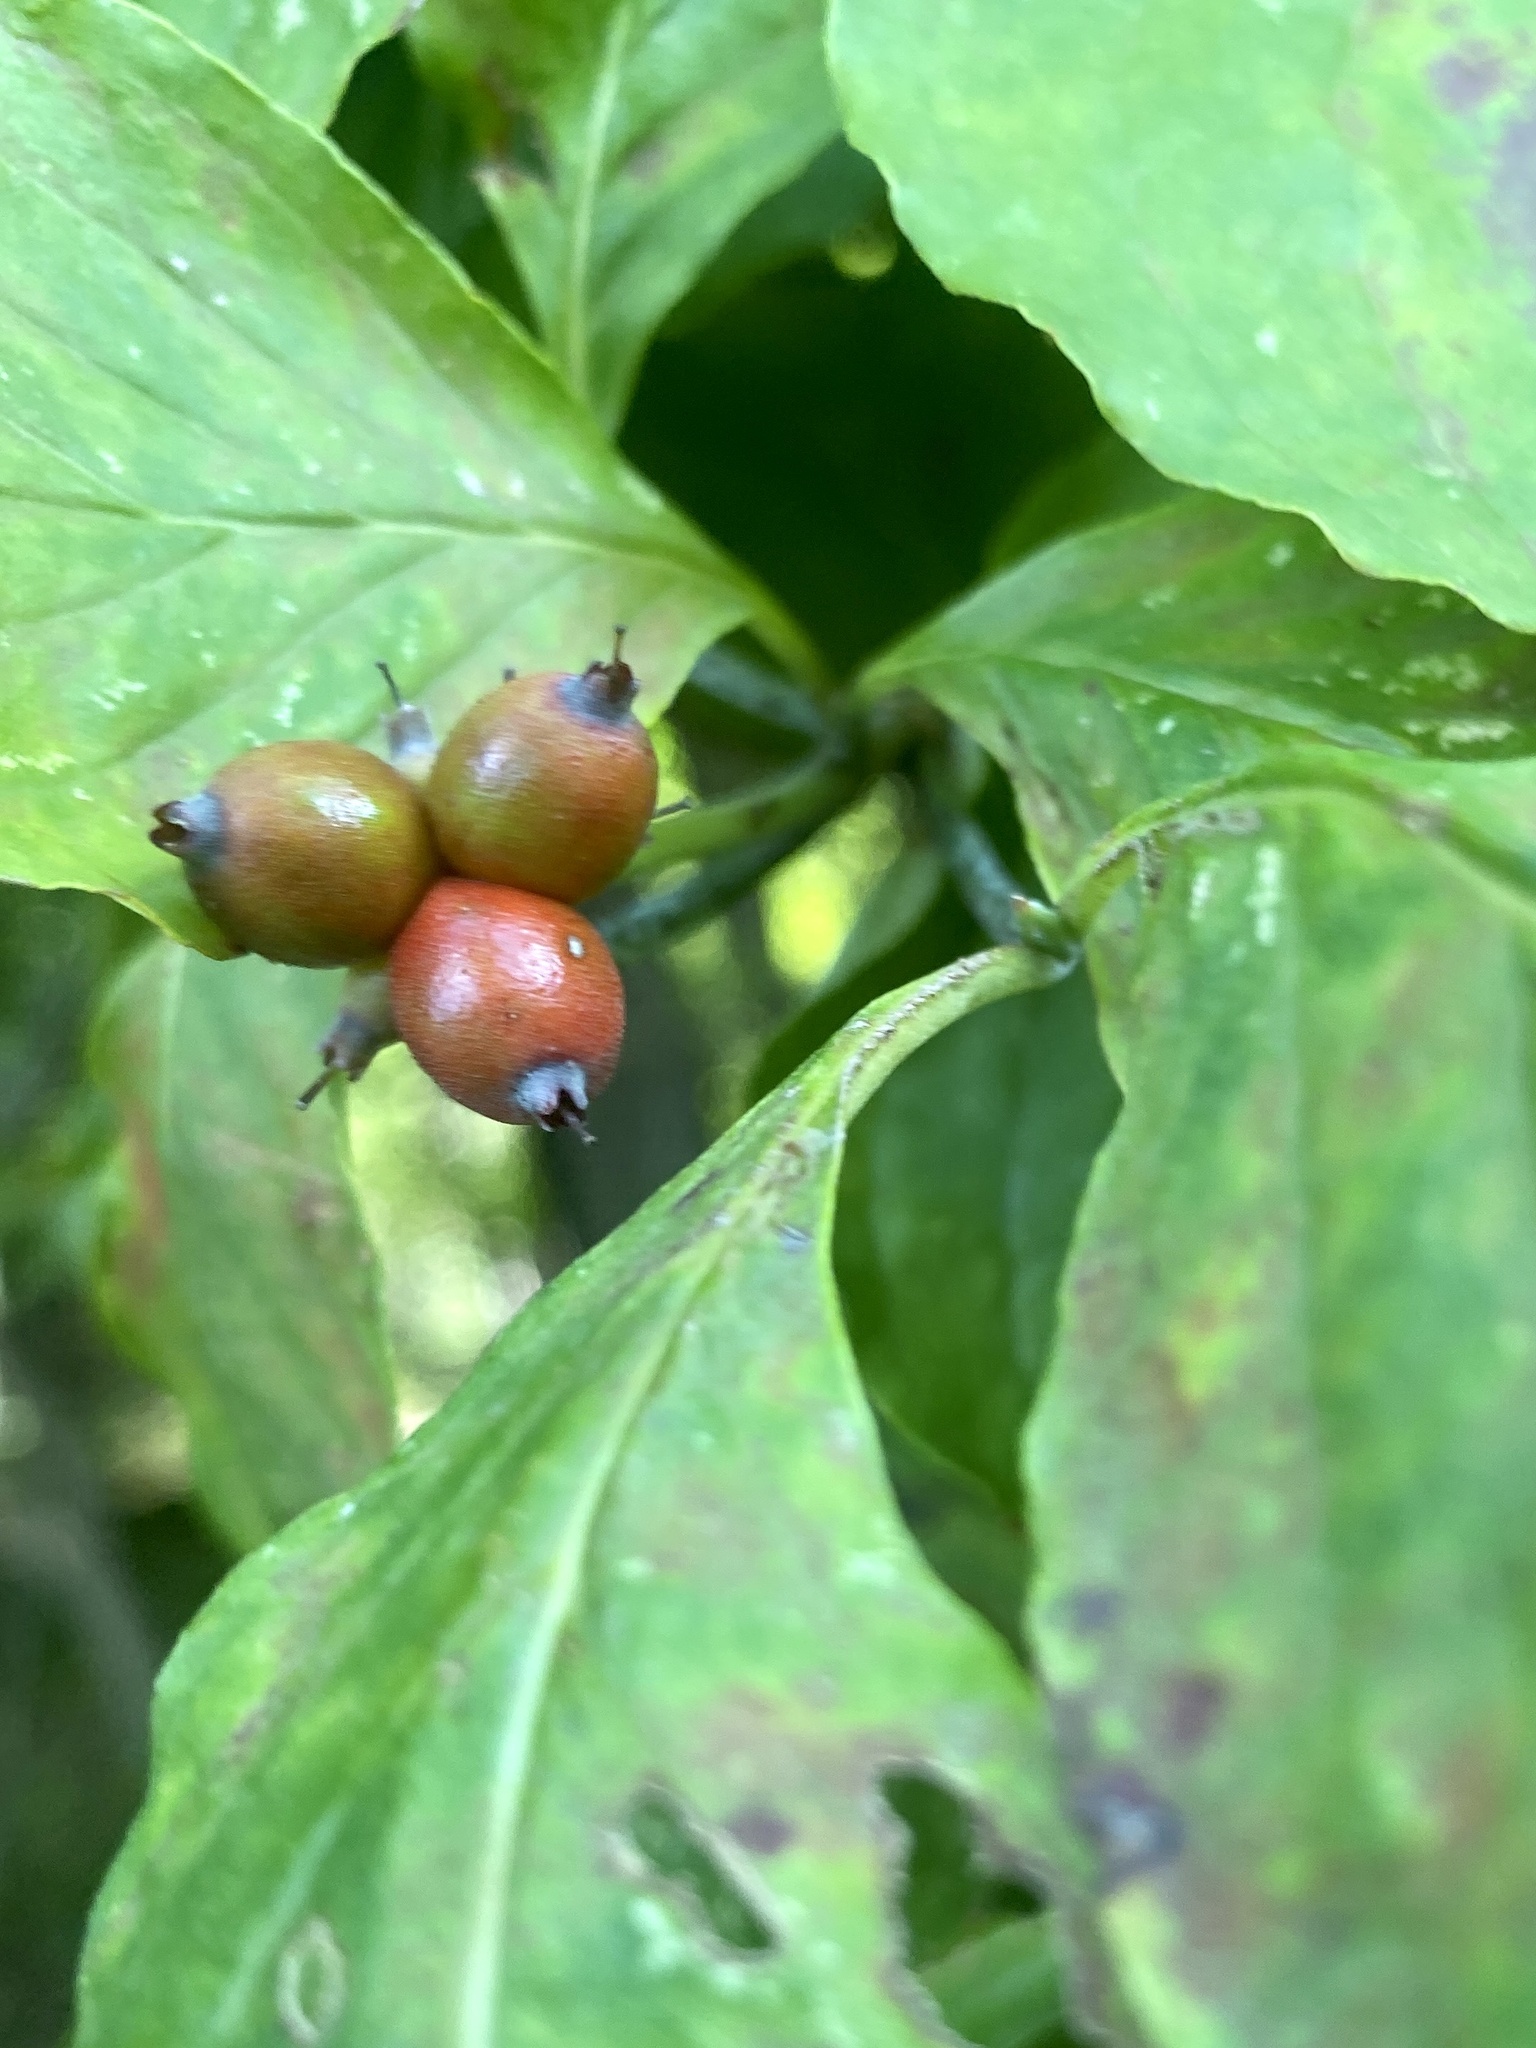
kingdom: Plantae
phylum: Tracheophyta
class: Magnoliopsida
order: Cornales
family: Cornaceae
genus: Cornus
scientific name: Cornus florida
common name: Flowering dogwood
